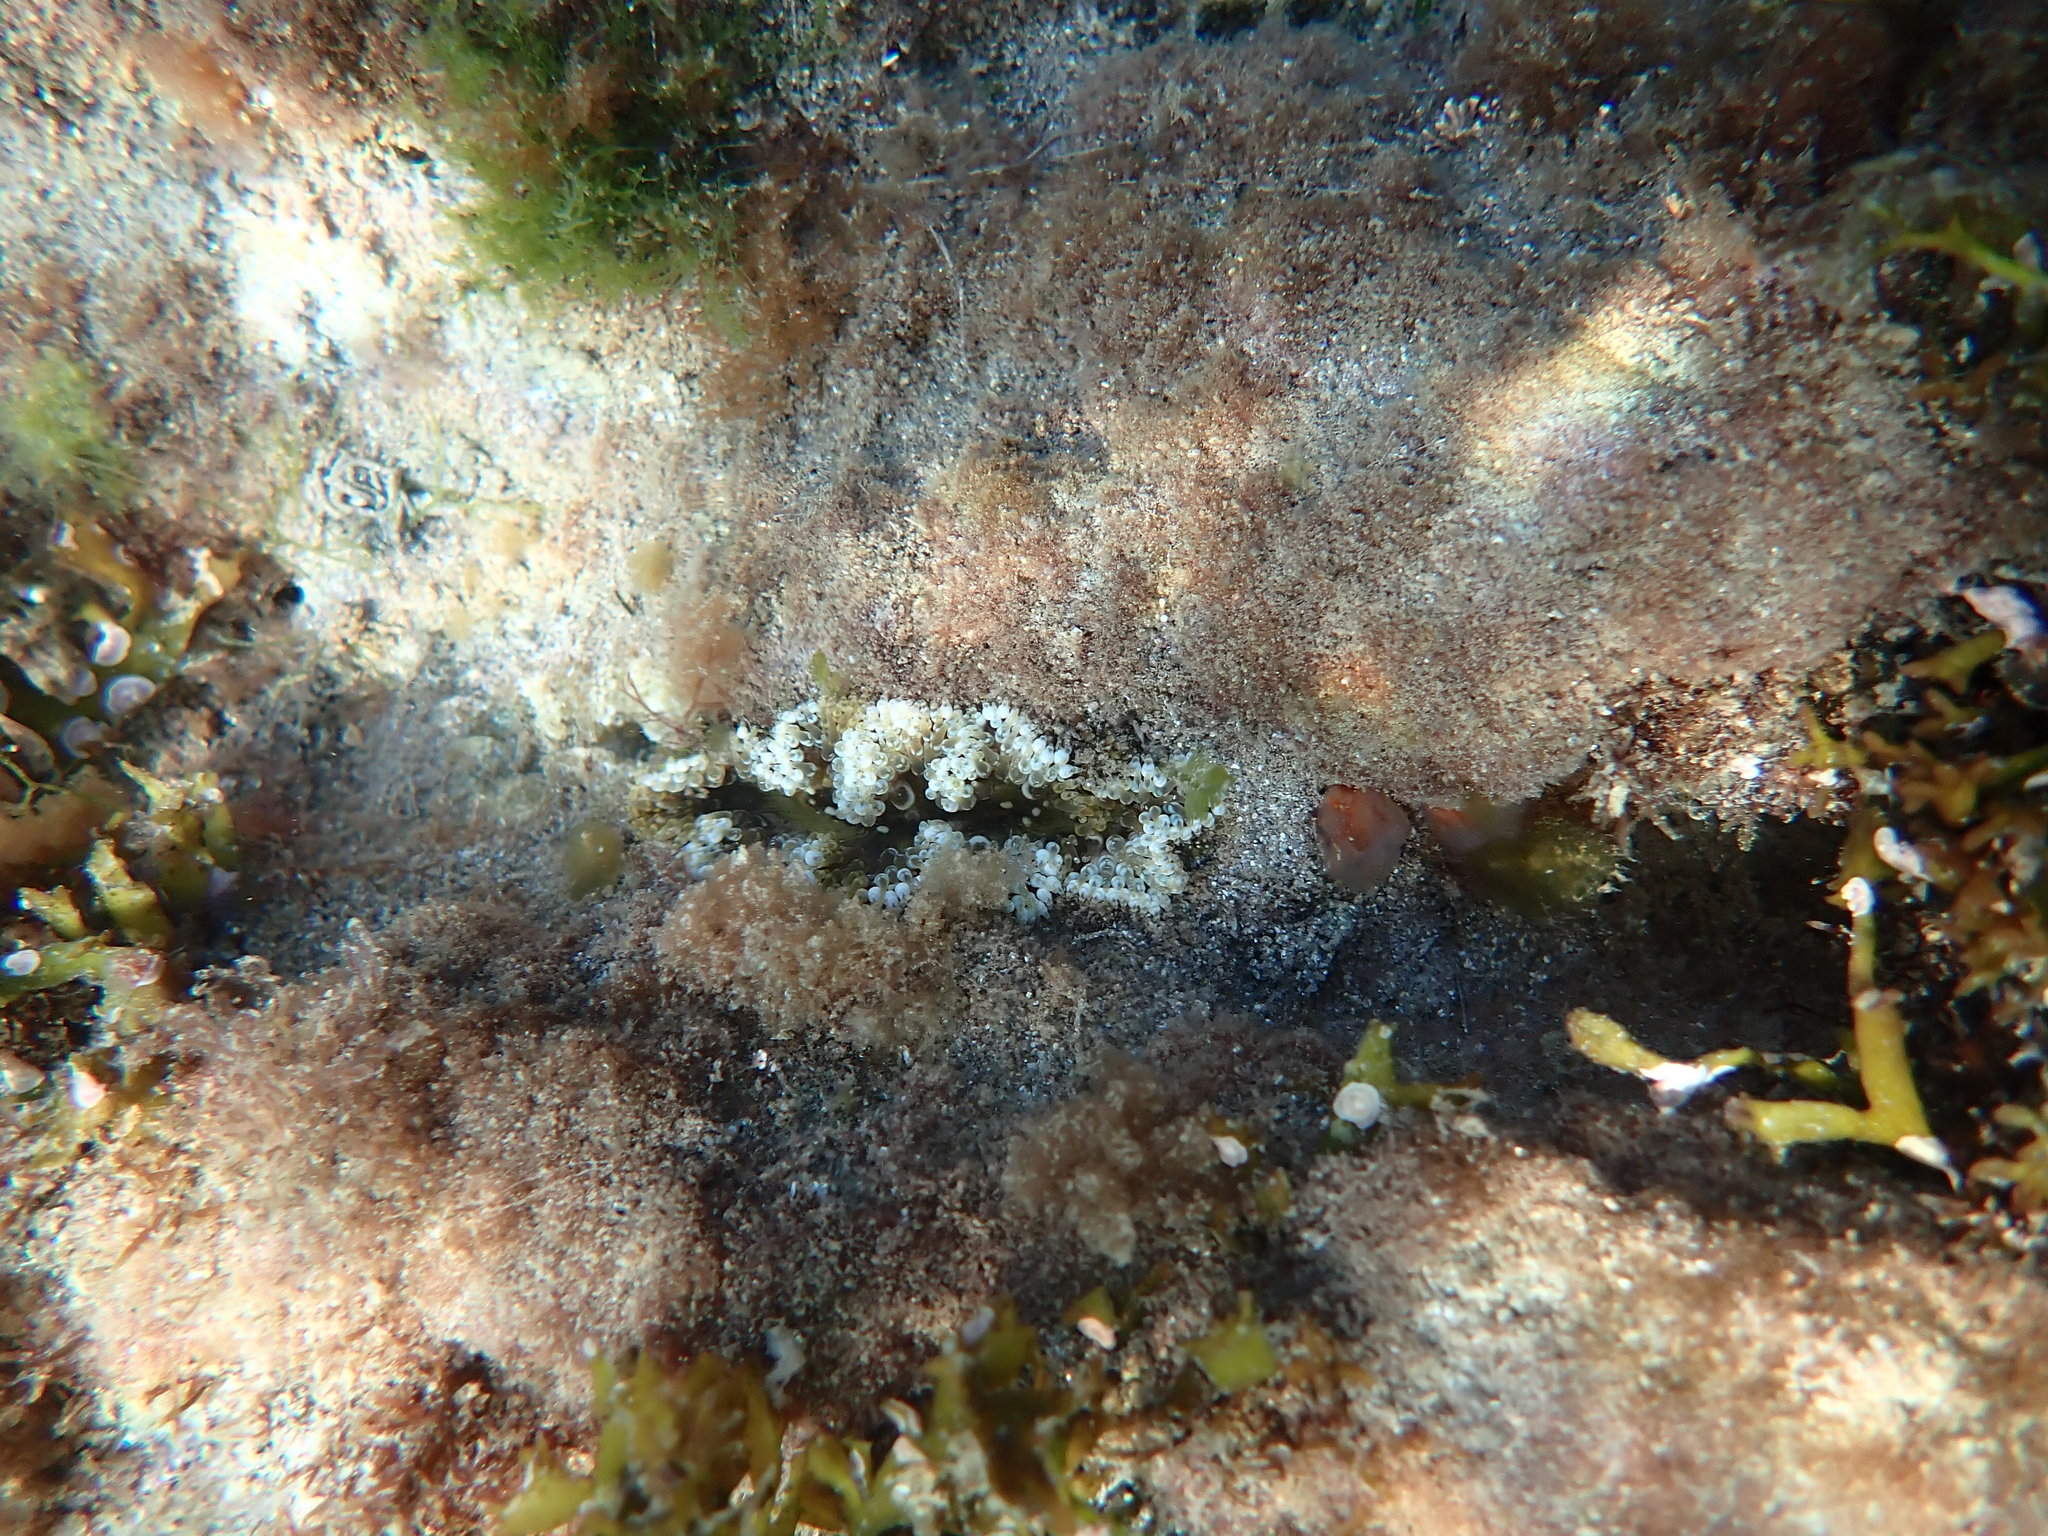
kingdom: Animalia
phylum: Cnidaria
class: Anthozoa
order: Actiniaria
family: Sagartiidae
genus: Cereus
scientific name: Cereus pedunculatus
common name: Daisy anemone
